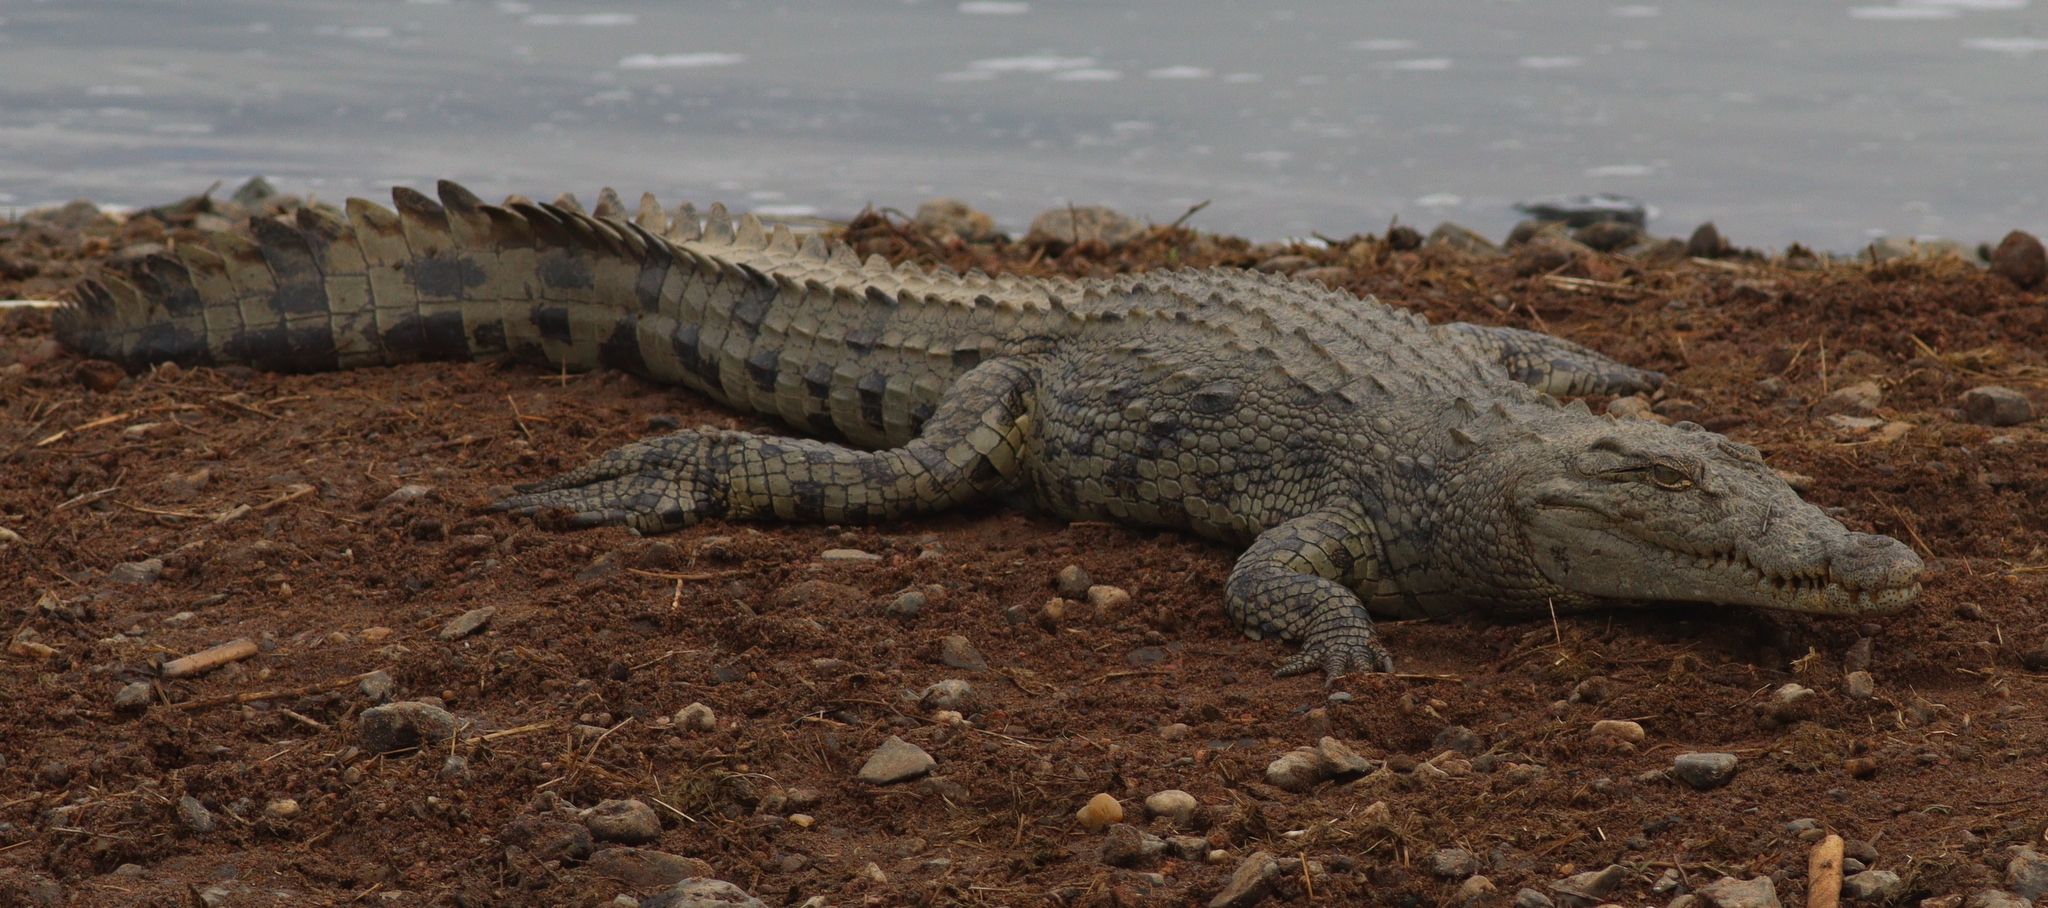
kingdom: Animalia
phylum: Chordata
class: Crocodylia
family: Crocodylidae
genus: Crocodylus
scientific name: Crocodylus niloticus
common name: Nile crocodile
